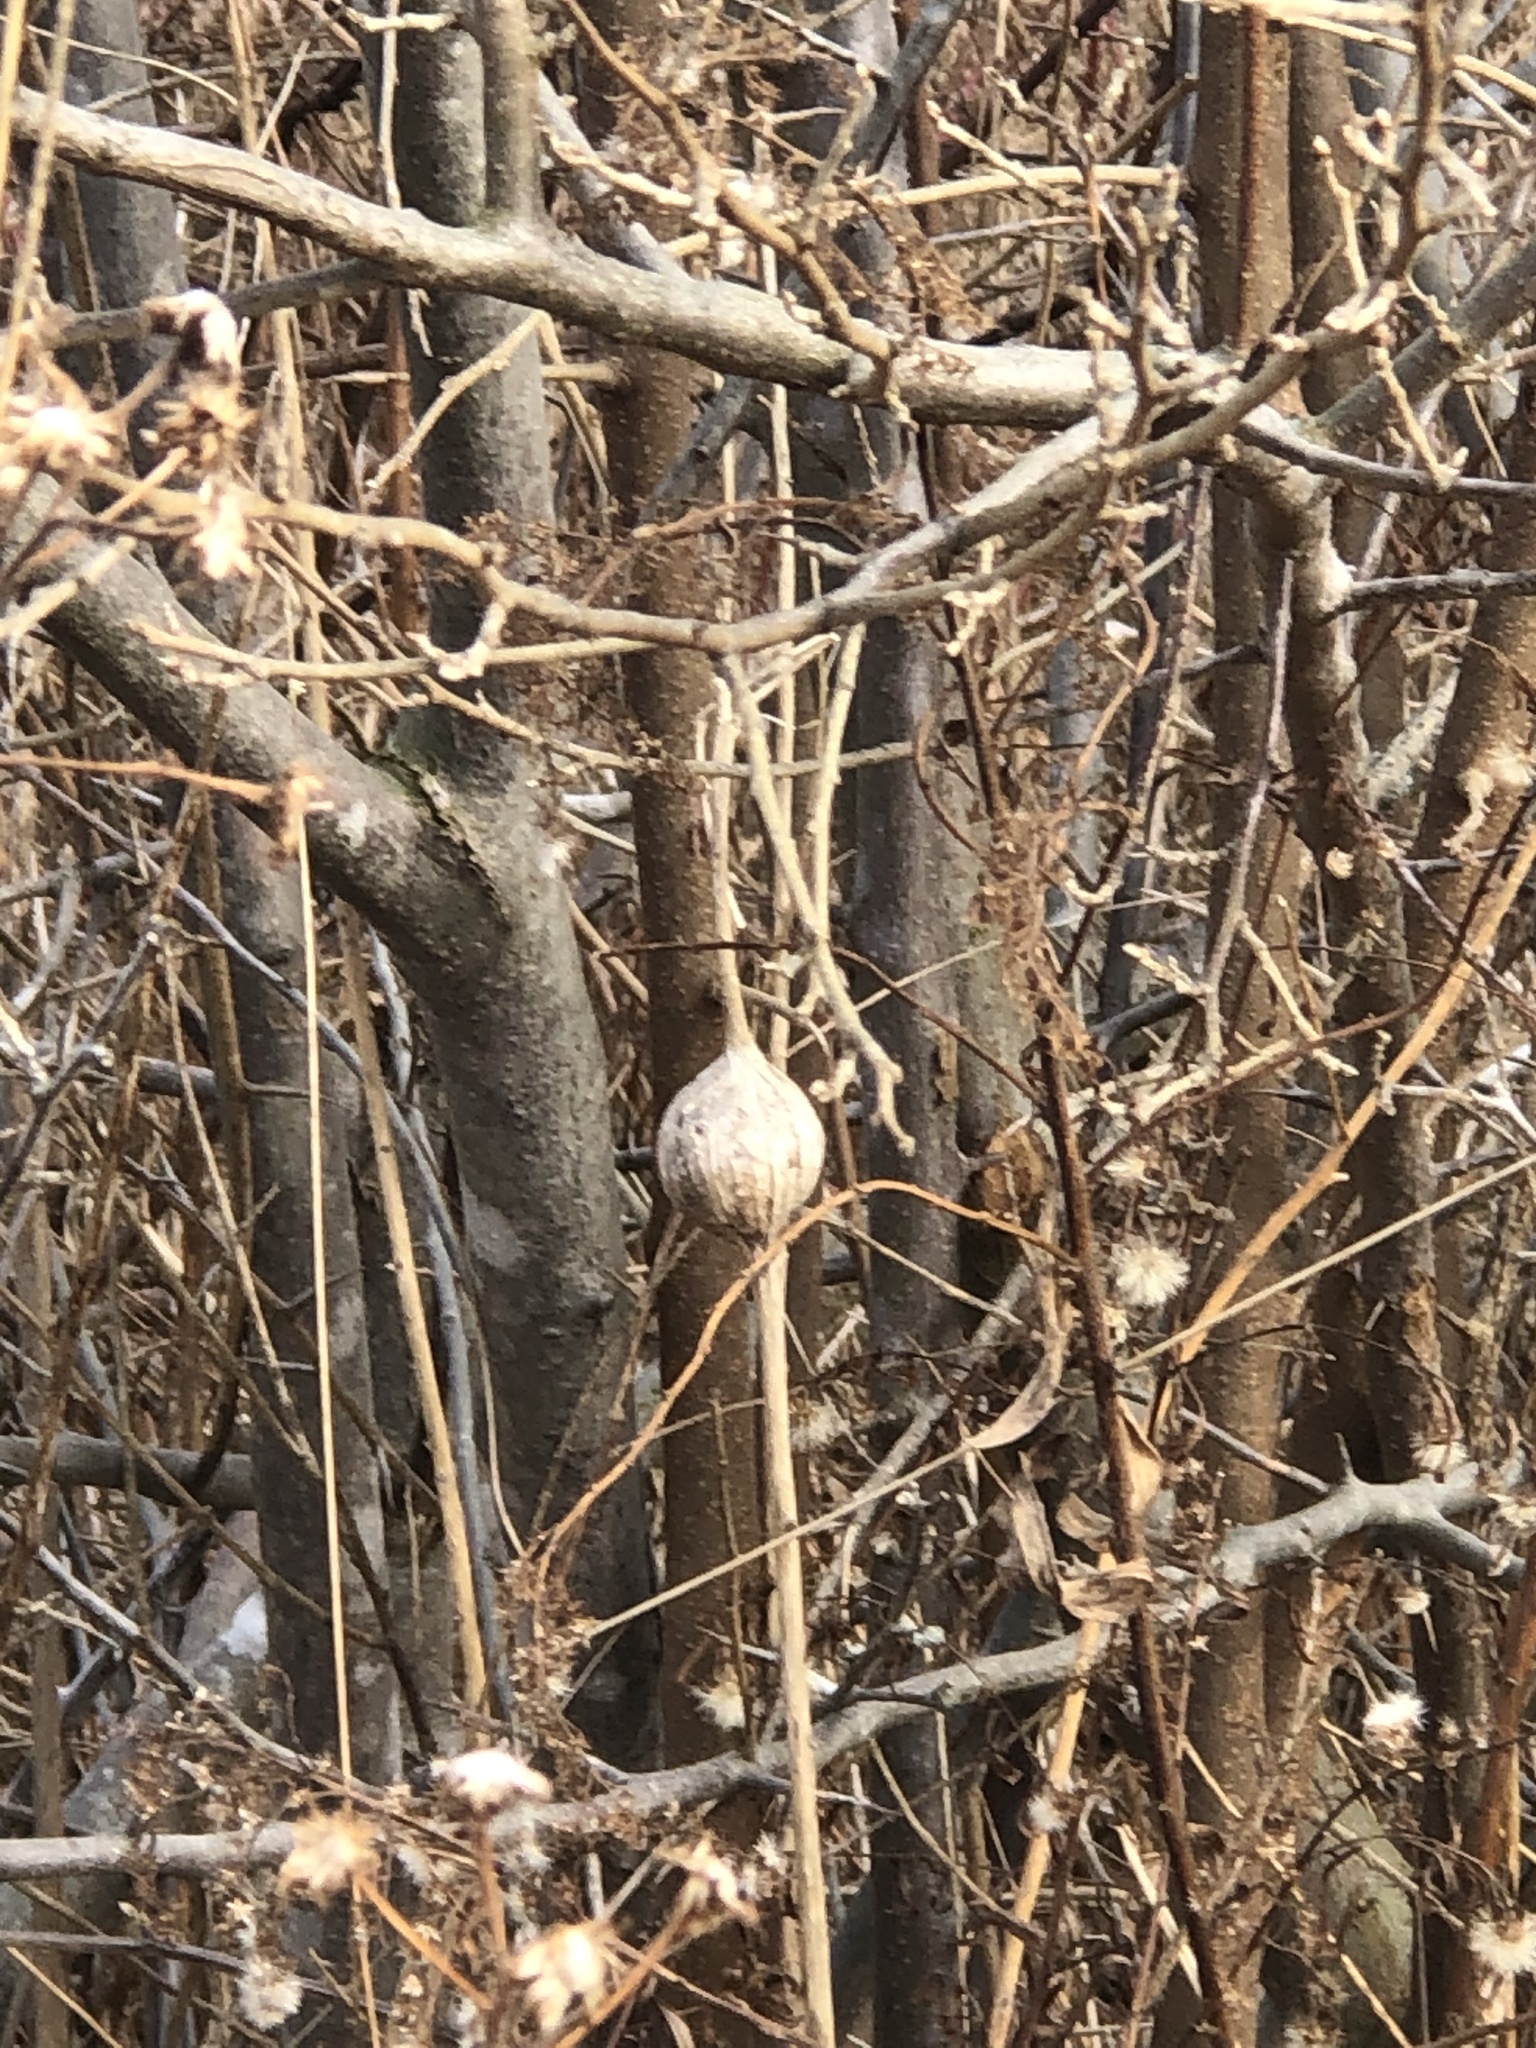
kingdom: Animalia
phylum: Arthropoda
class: Insecta
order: Diptera
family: Tephritidae
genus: Eurosta
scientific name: Eurosta solidaginis
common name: Goldenrod gall fly
